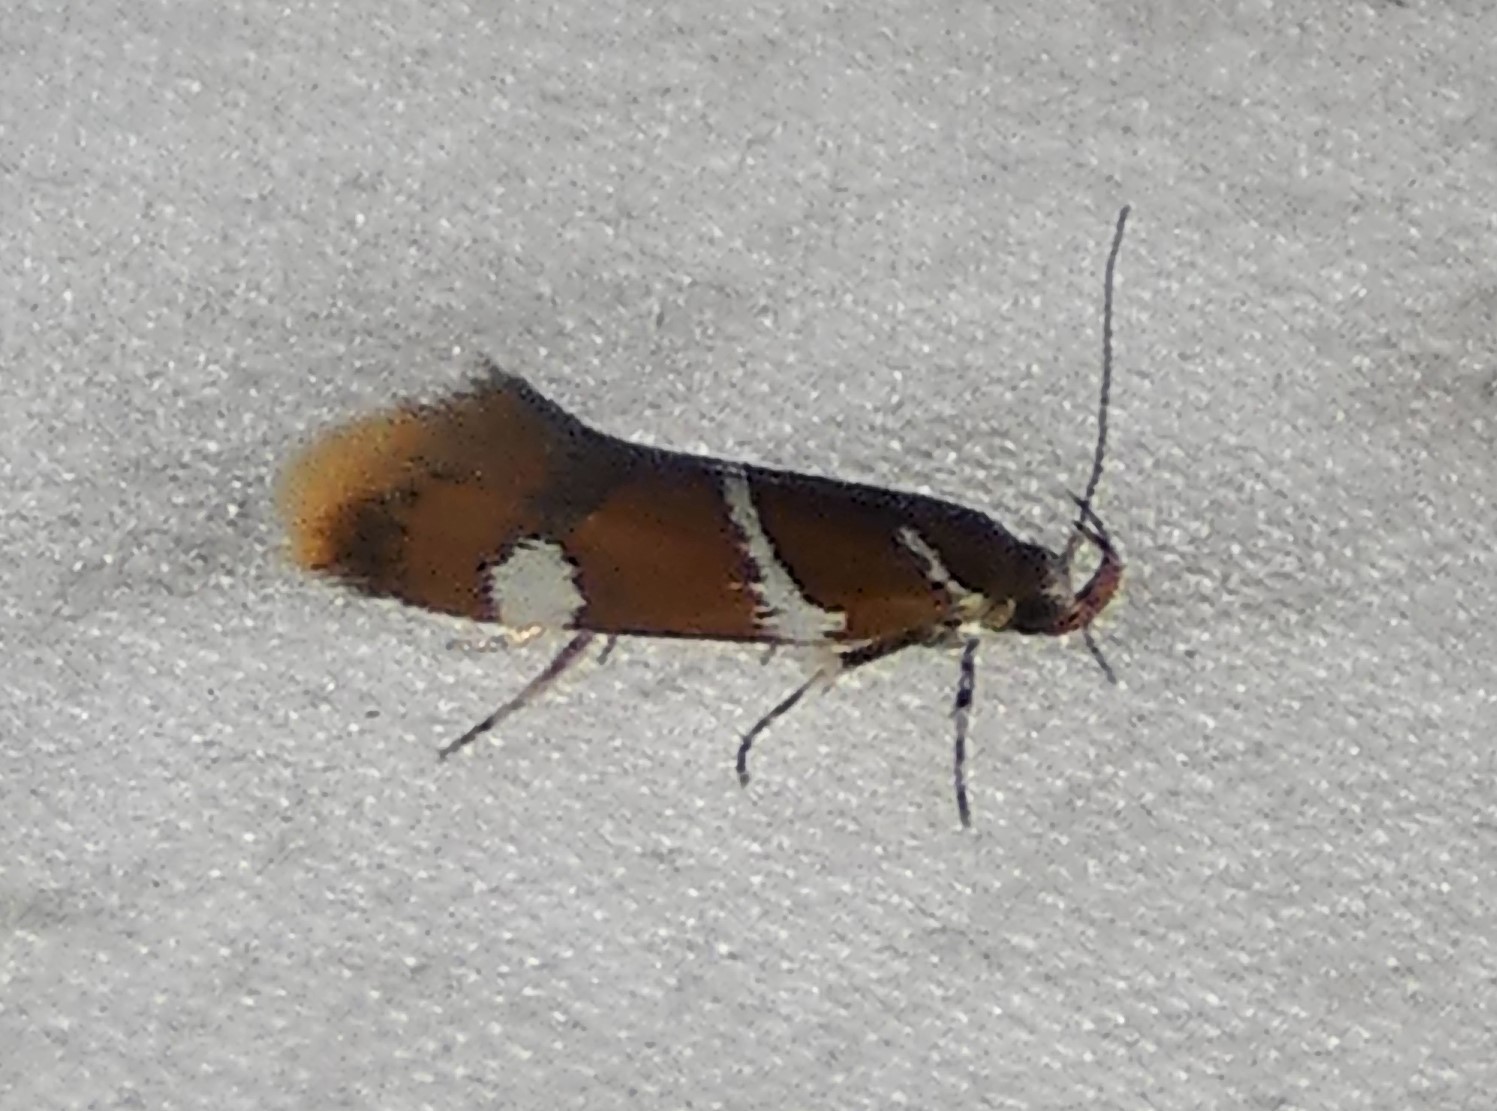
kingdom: Animalia
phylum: Arthropoda
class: Insecta
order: Lepidoptera
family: Oecophoridae
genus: Promalactis
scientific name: Promalactis suzukiella
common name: Moth
